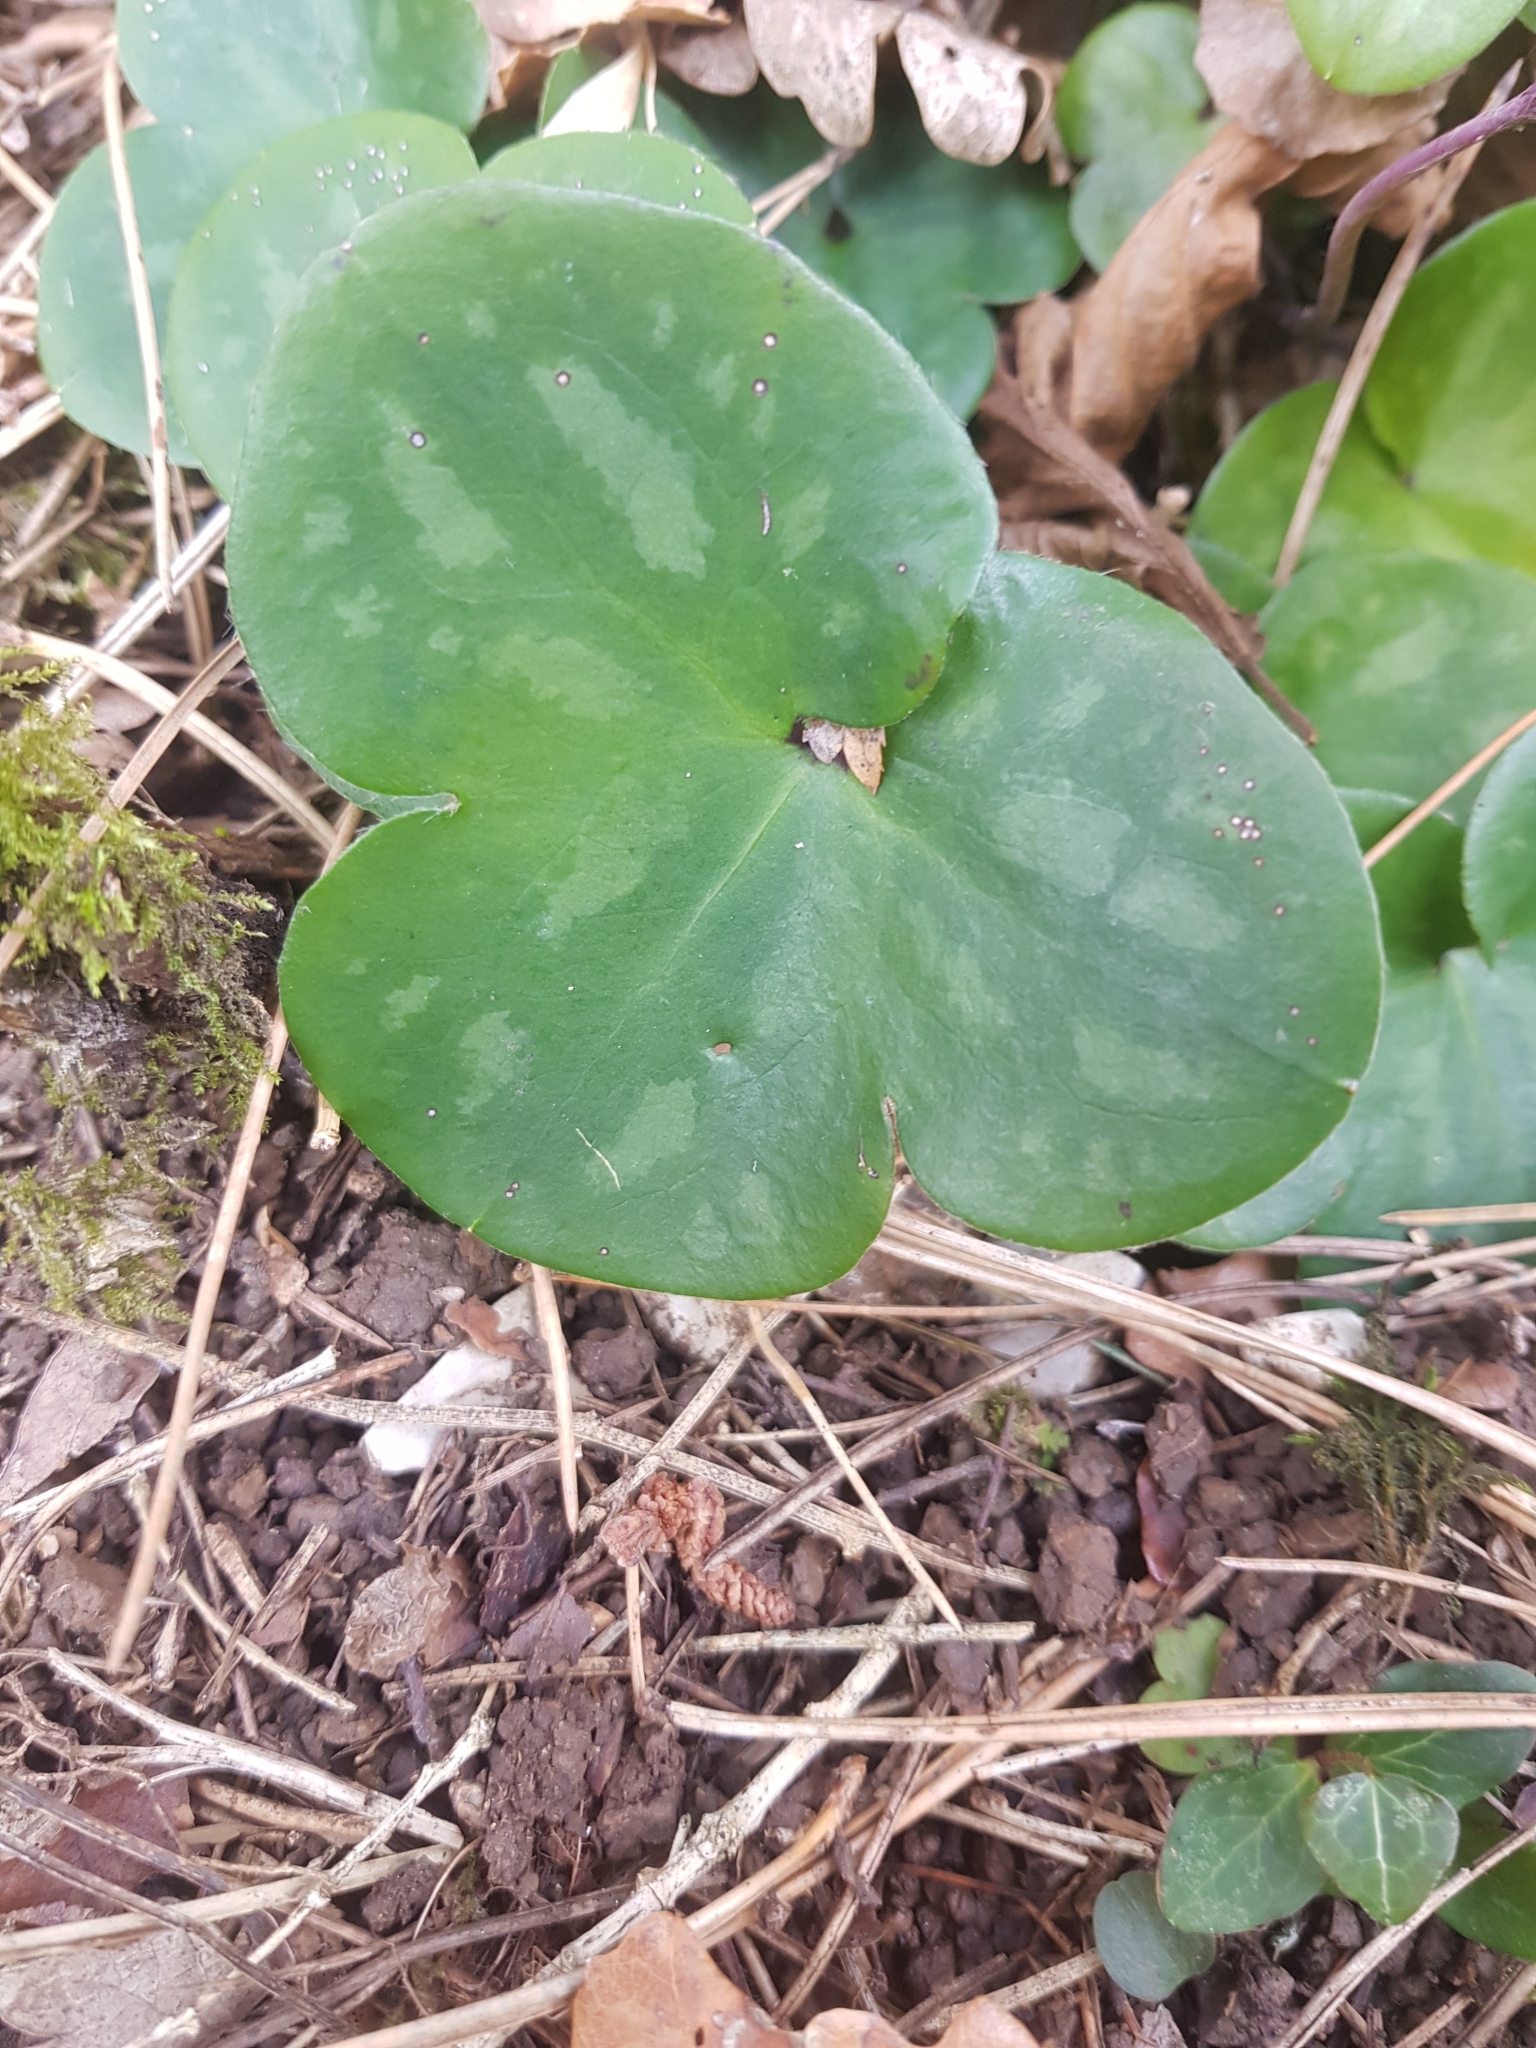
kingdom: Plantae
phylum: Tracheophyta
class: Magnoliopsida
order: Ranunculales
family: Ranunculaceae
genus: Hepatica
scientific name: Hepatica nobilis
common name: Liverleaf
